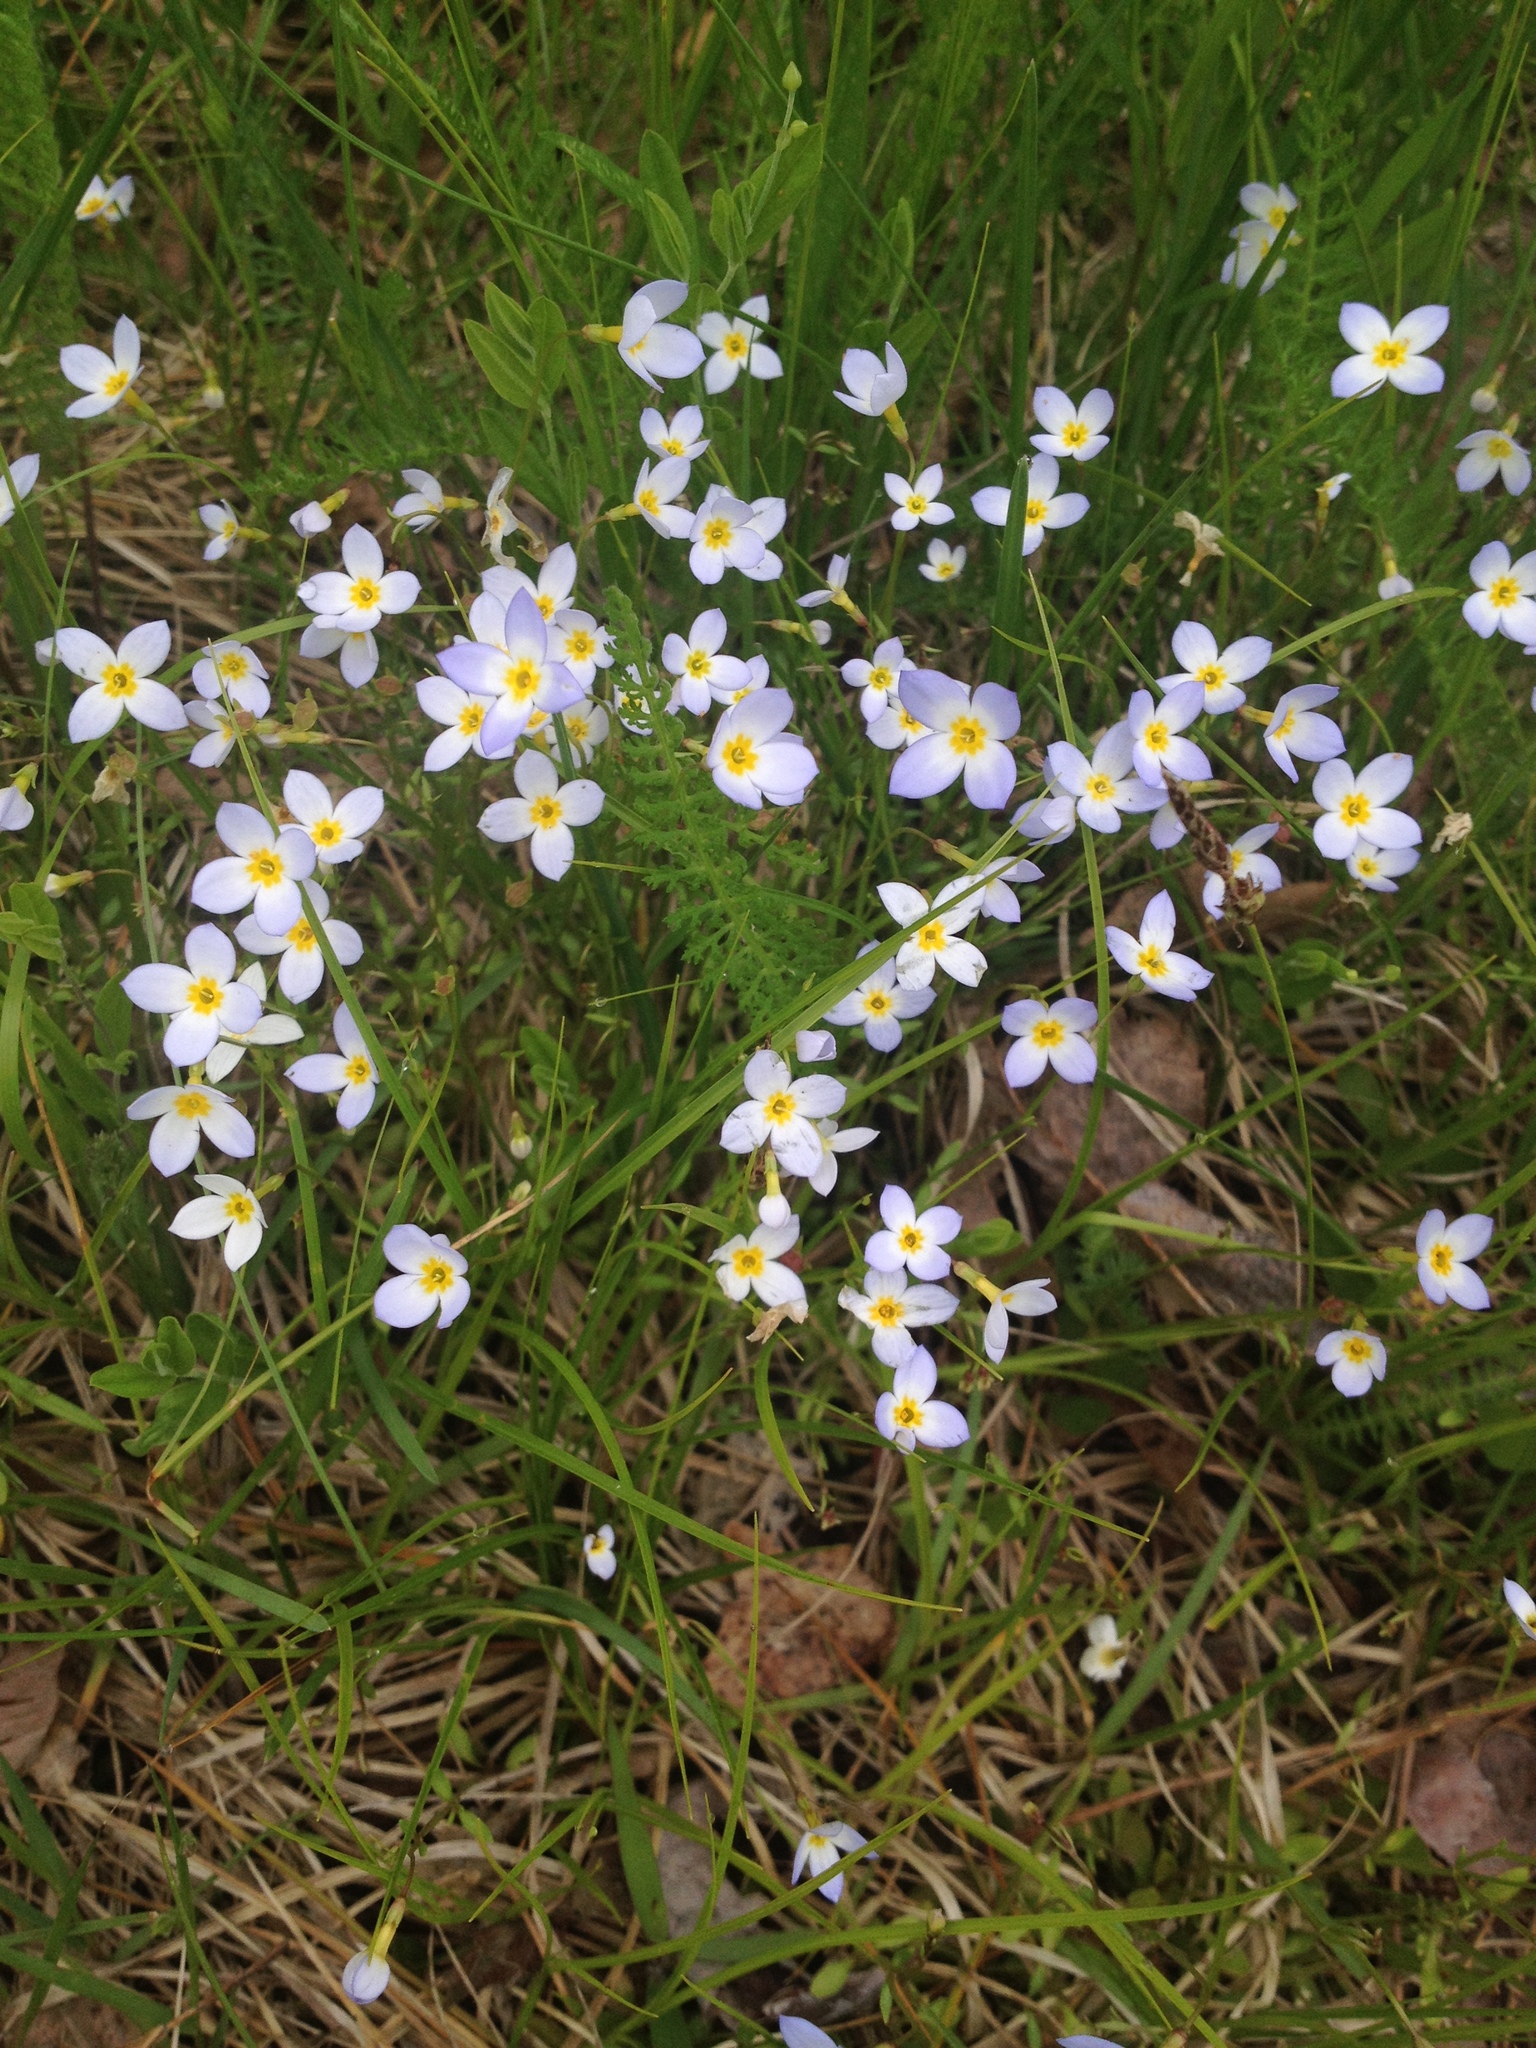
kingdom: Plantae
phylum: Tracheophyta
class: Magnoliopsida
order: Gentianales
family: Rubiaceae
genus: Houstonia
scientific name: Houstonia caerulea
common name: Bluets
